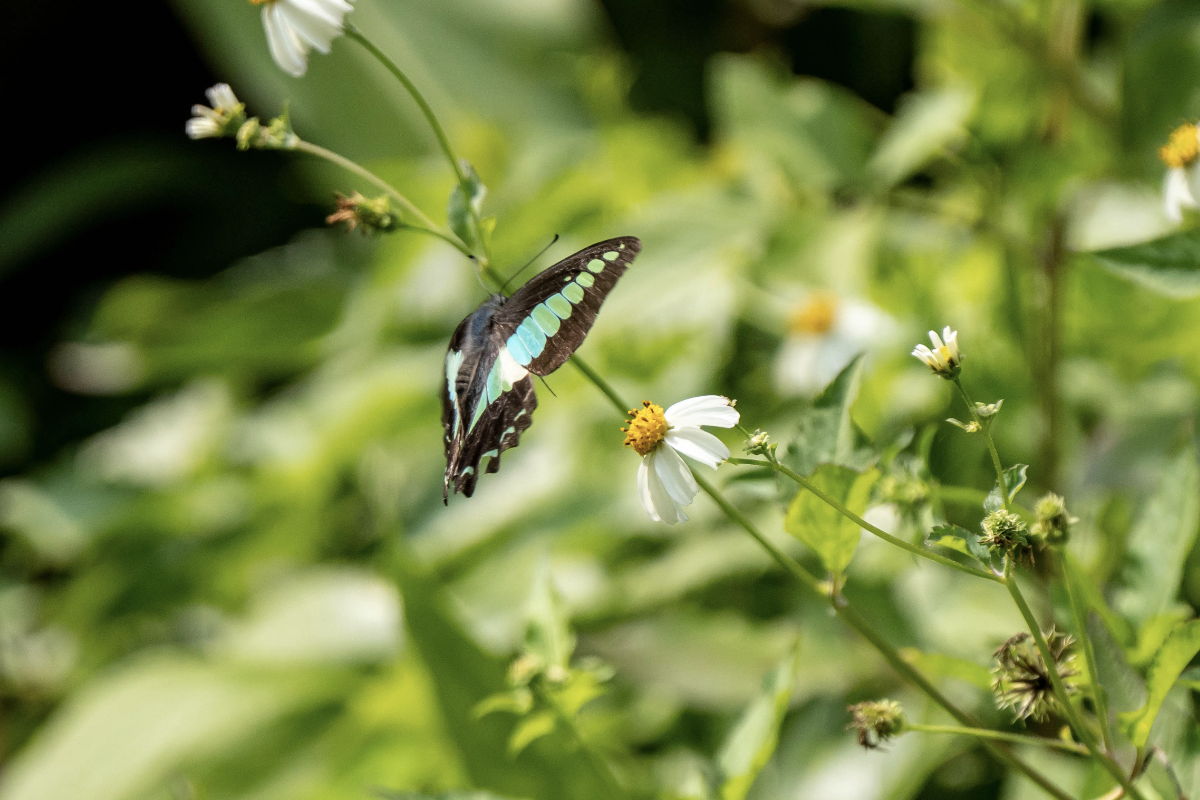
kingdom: Fungi
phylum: Ascomycota
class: Sordariomycetes
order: Microascales
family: Microascaceae
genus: Graphium
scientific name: Graphium sarpedon
